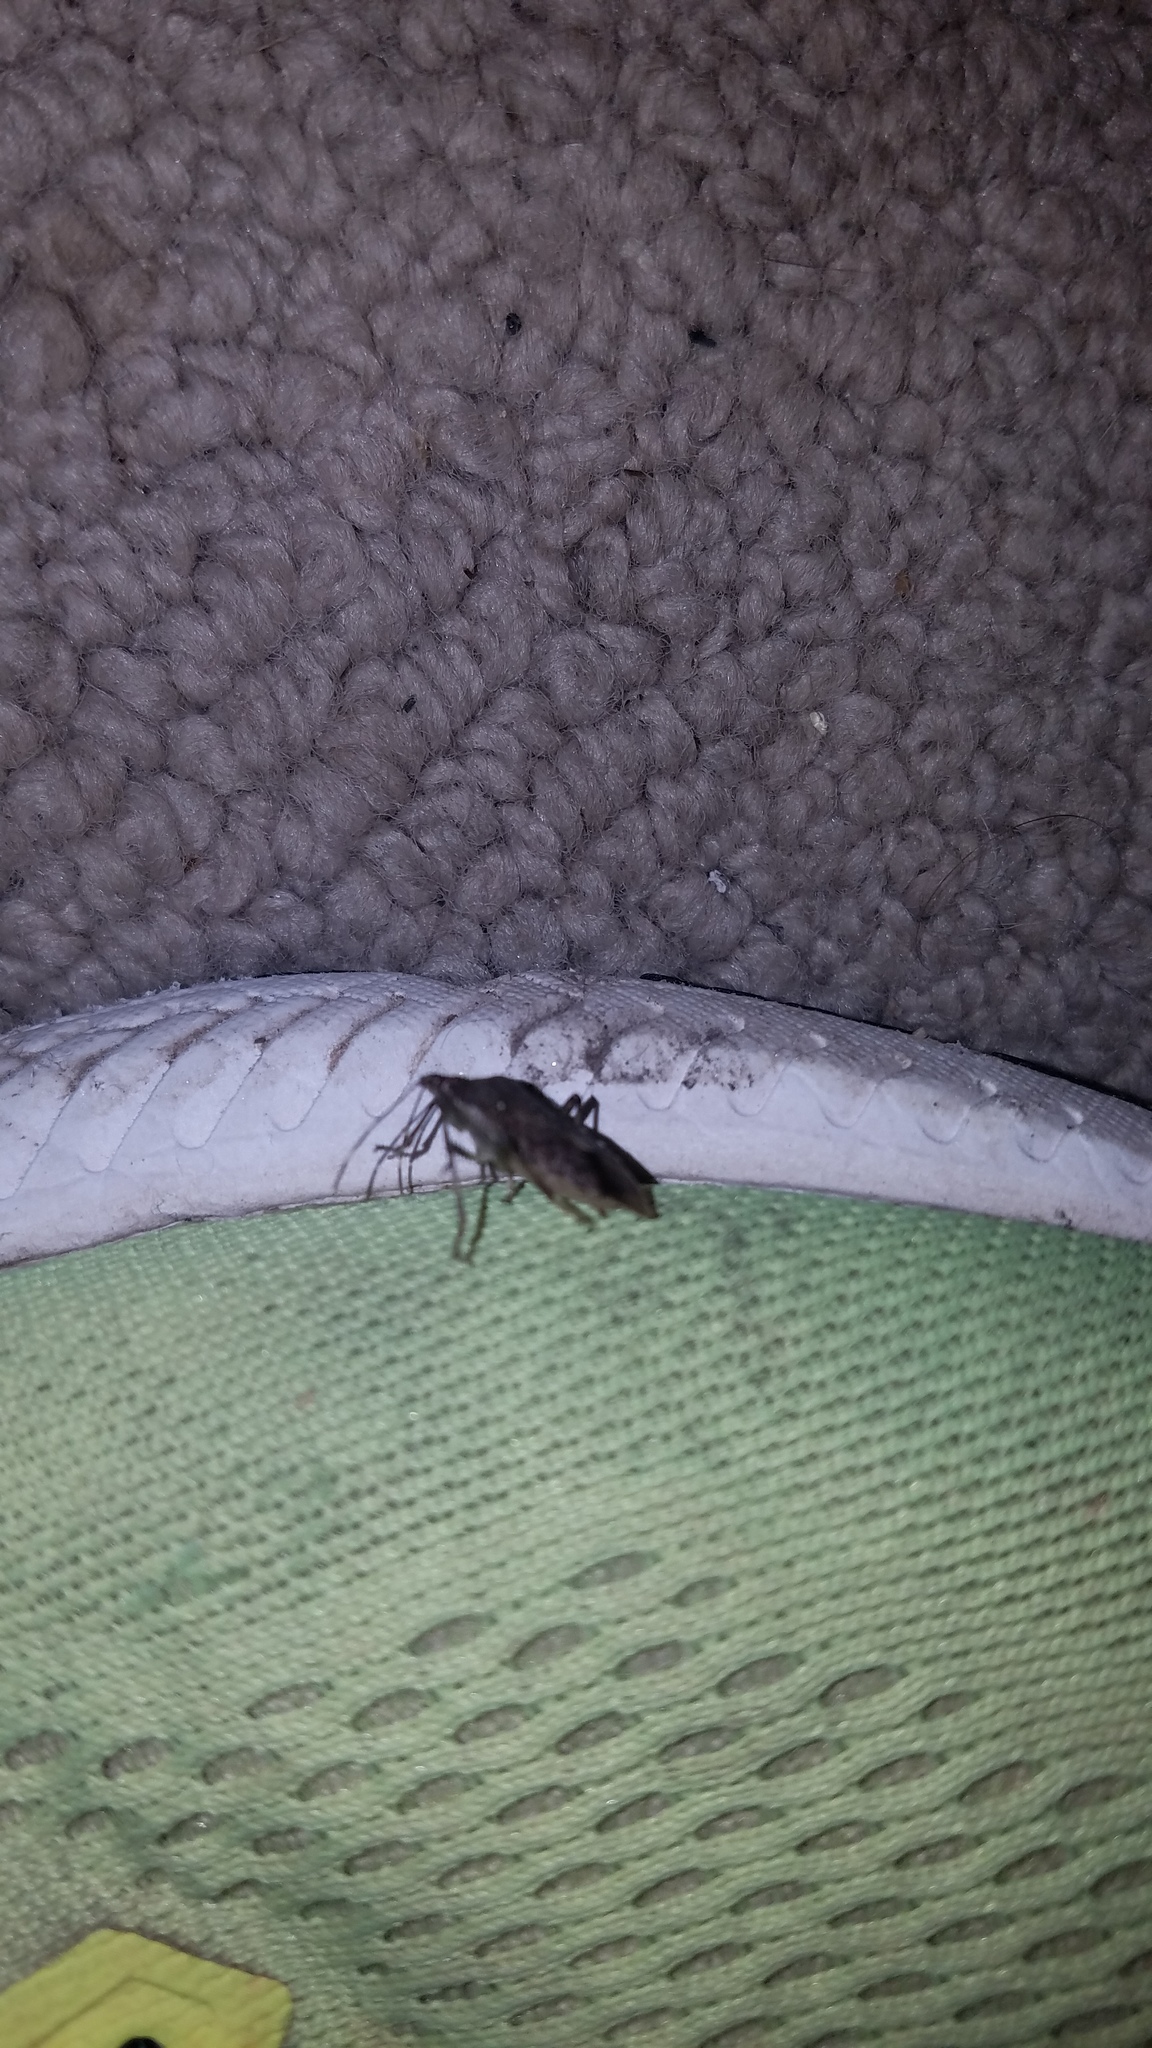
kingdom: Animalia
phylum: Arthropoda
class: Insecta
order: Hemiptera
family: Pentatomidae
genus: Halyomorpha
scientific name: Halyomorpha halys
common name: Brown marmorated stink bug
